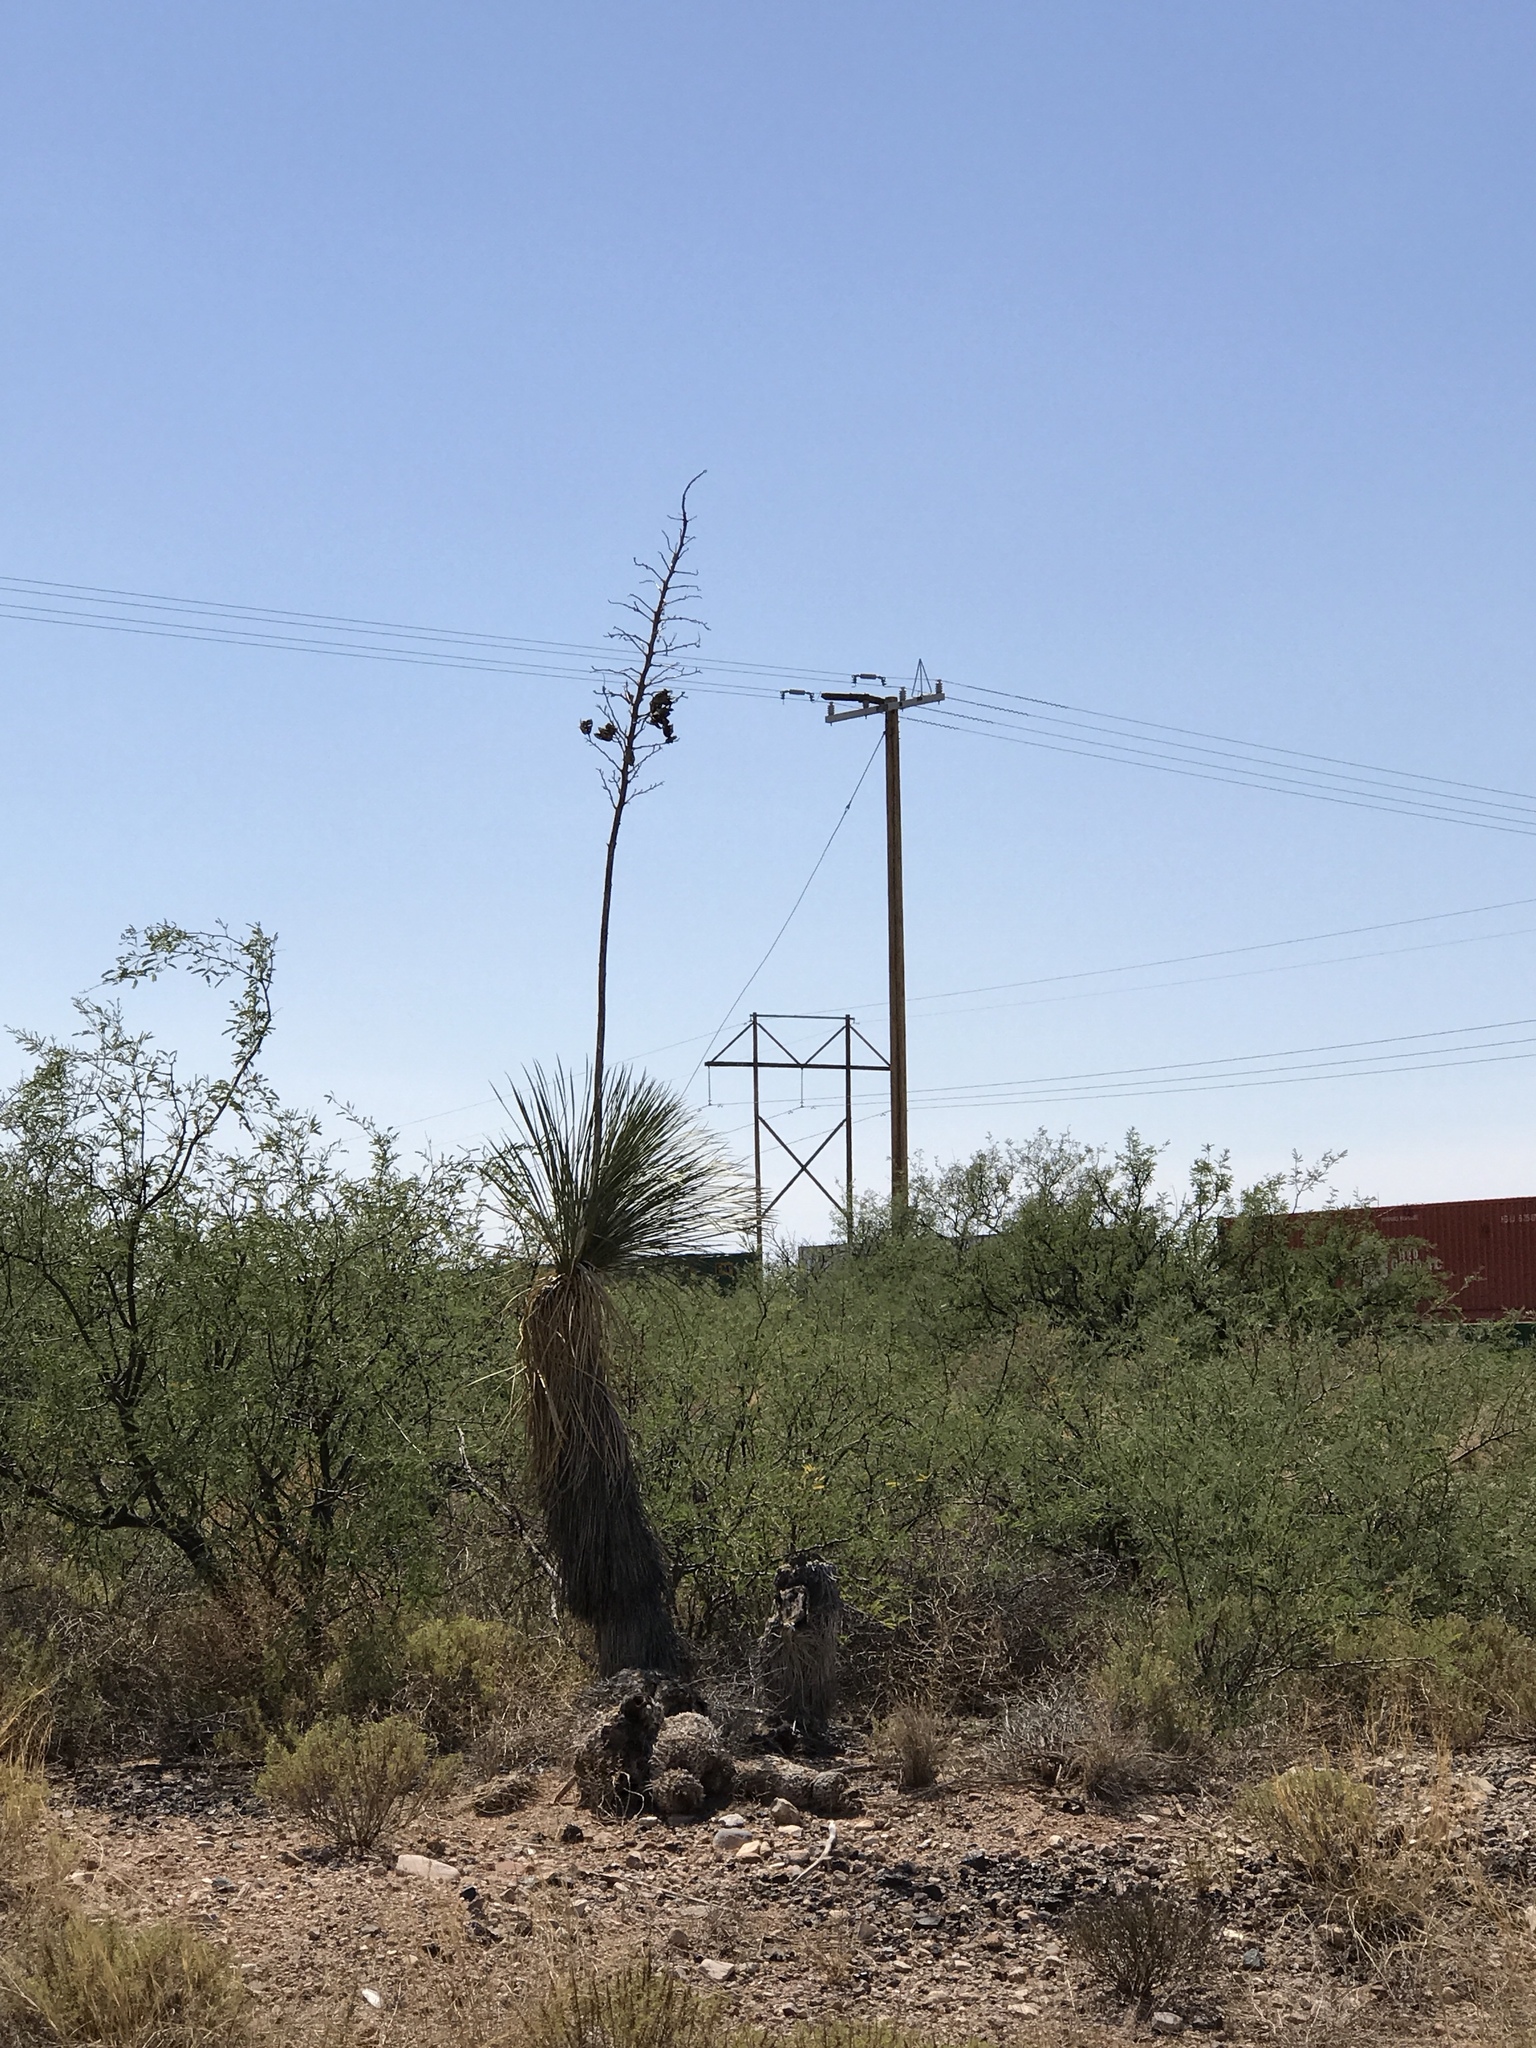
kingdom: Plantae
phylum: Tracheophyta
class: Liliopsida
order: Asparagales
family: Asparagaceae
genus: Yucca
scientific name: Yucca elata
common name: Palmella
